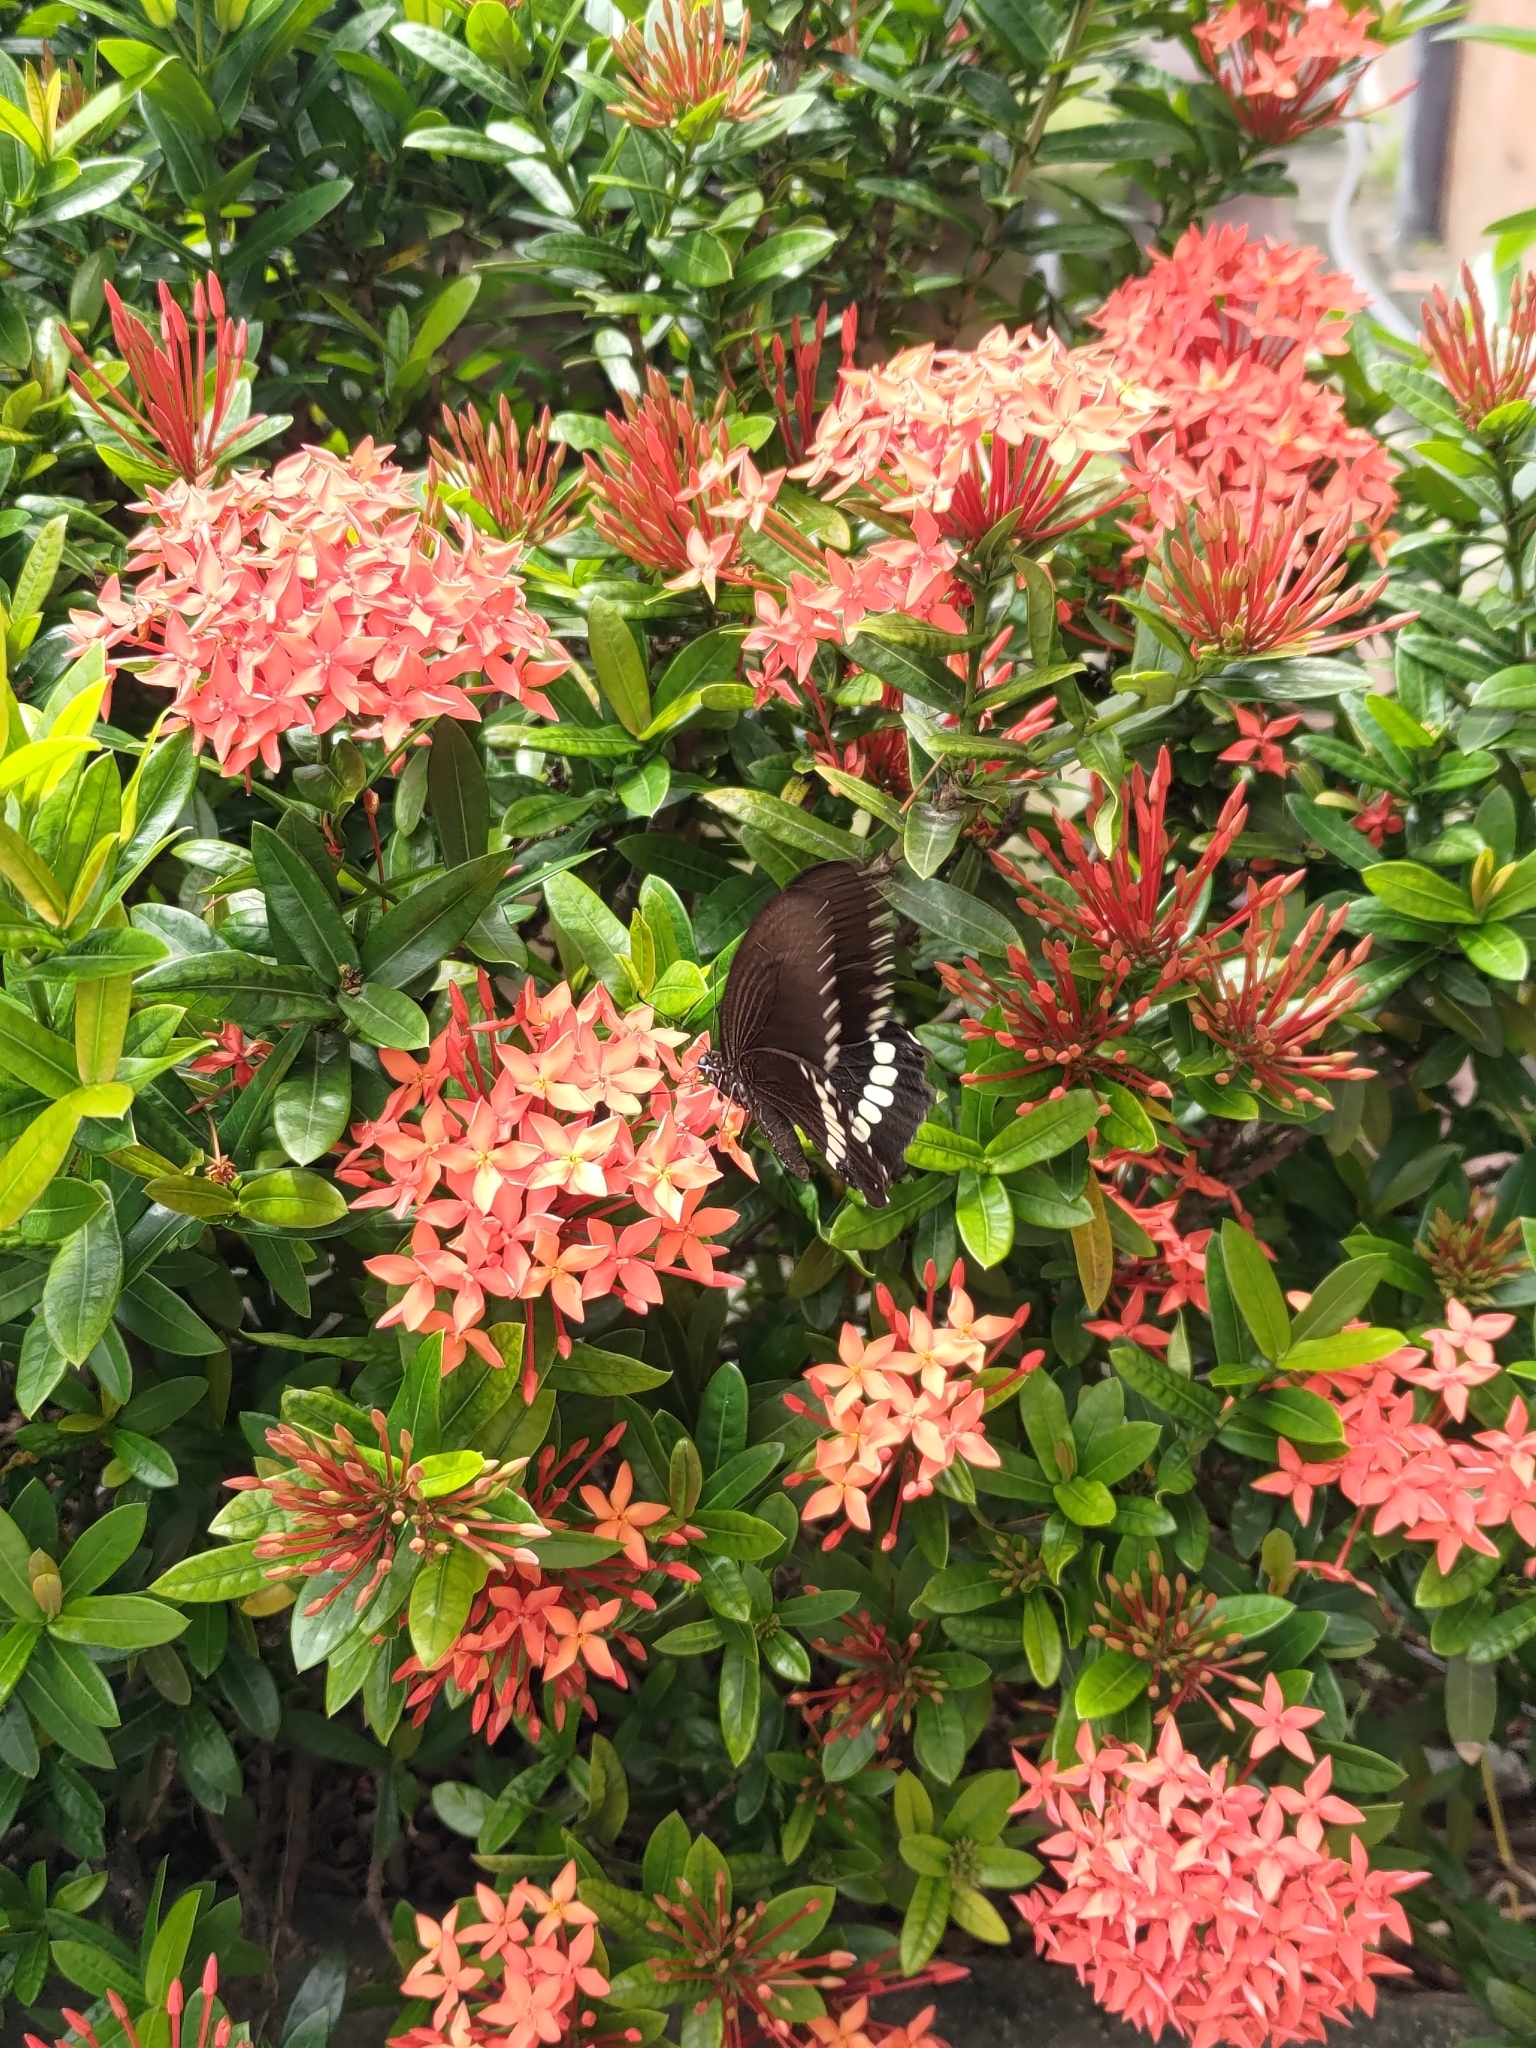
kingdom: Animalia
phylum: Arthropoda
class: Insecta
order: Lepidoptera
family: Papilionidae
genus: Papilio
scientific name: Papilio polytes
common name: Common mormon
